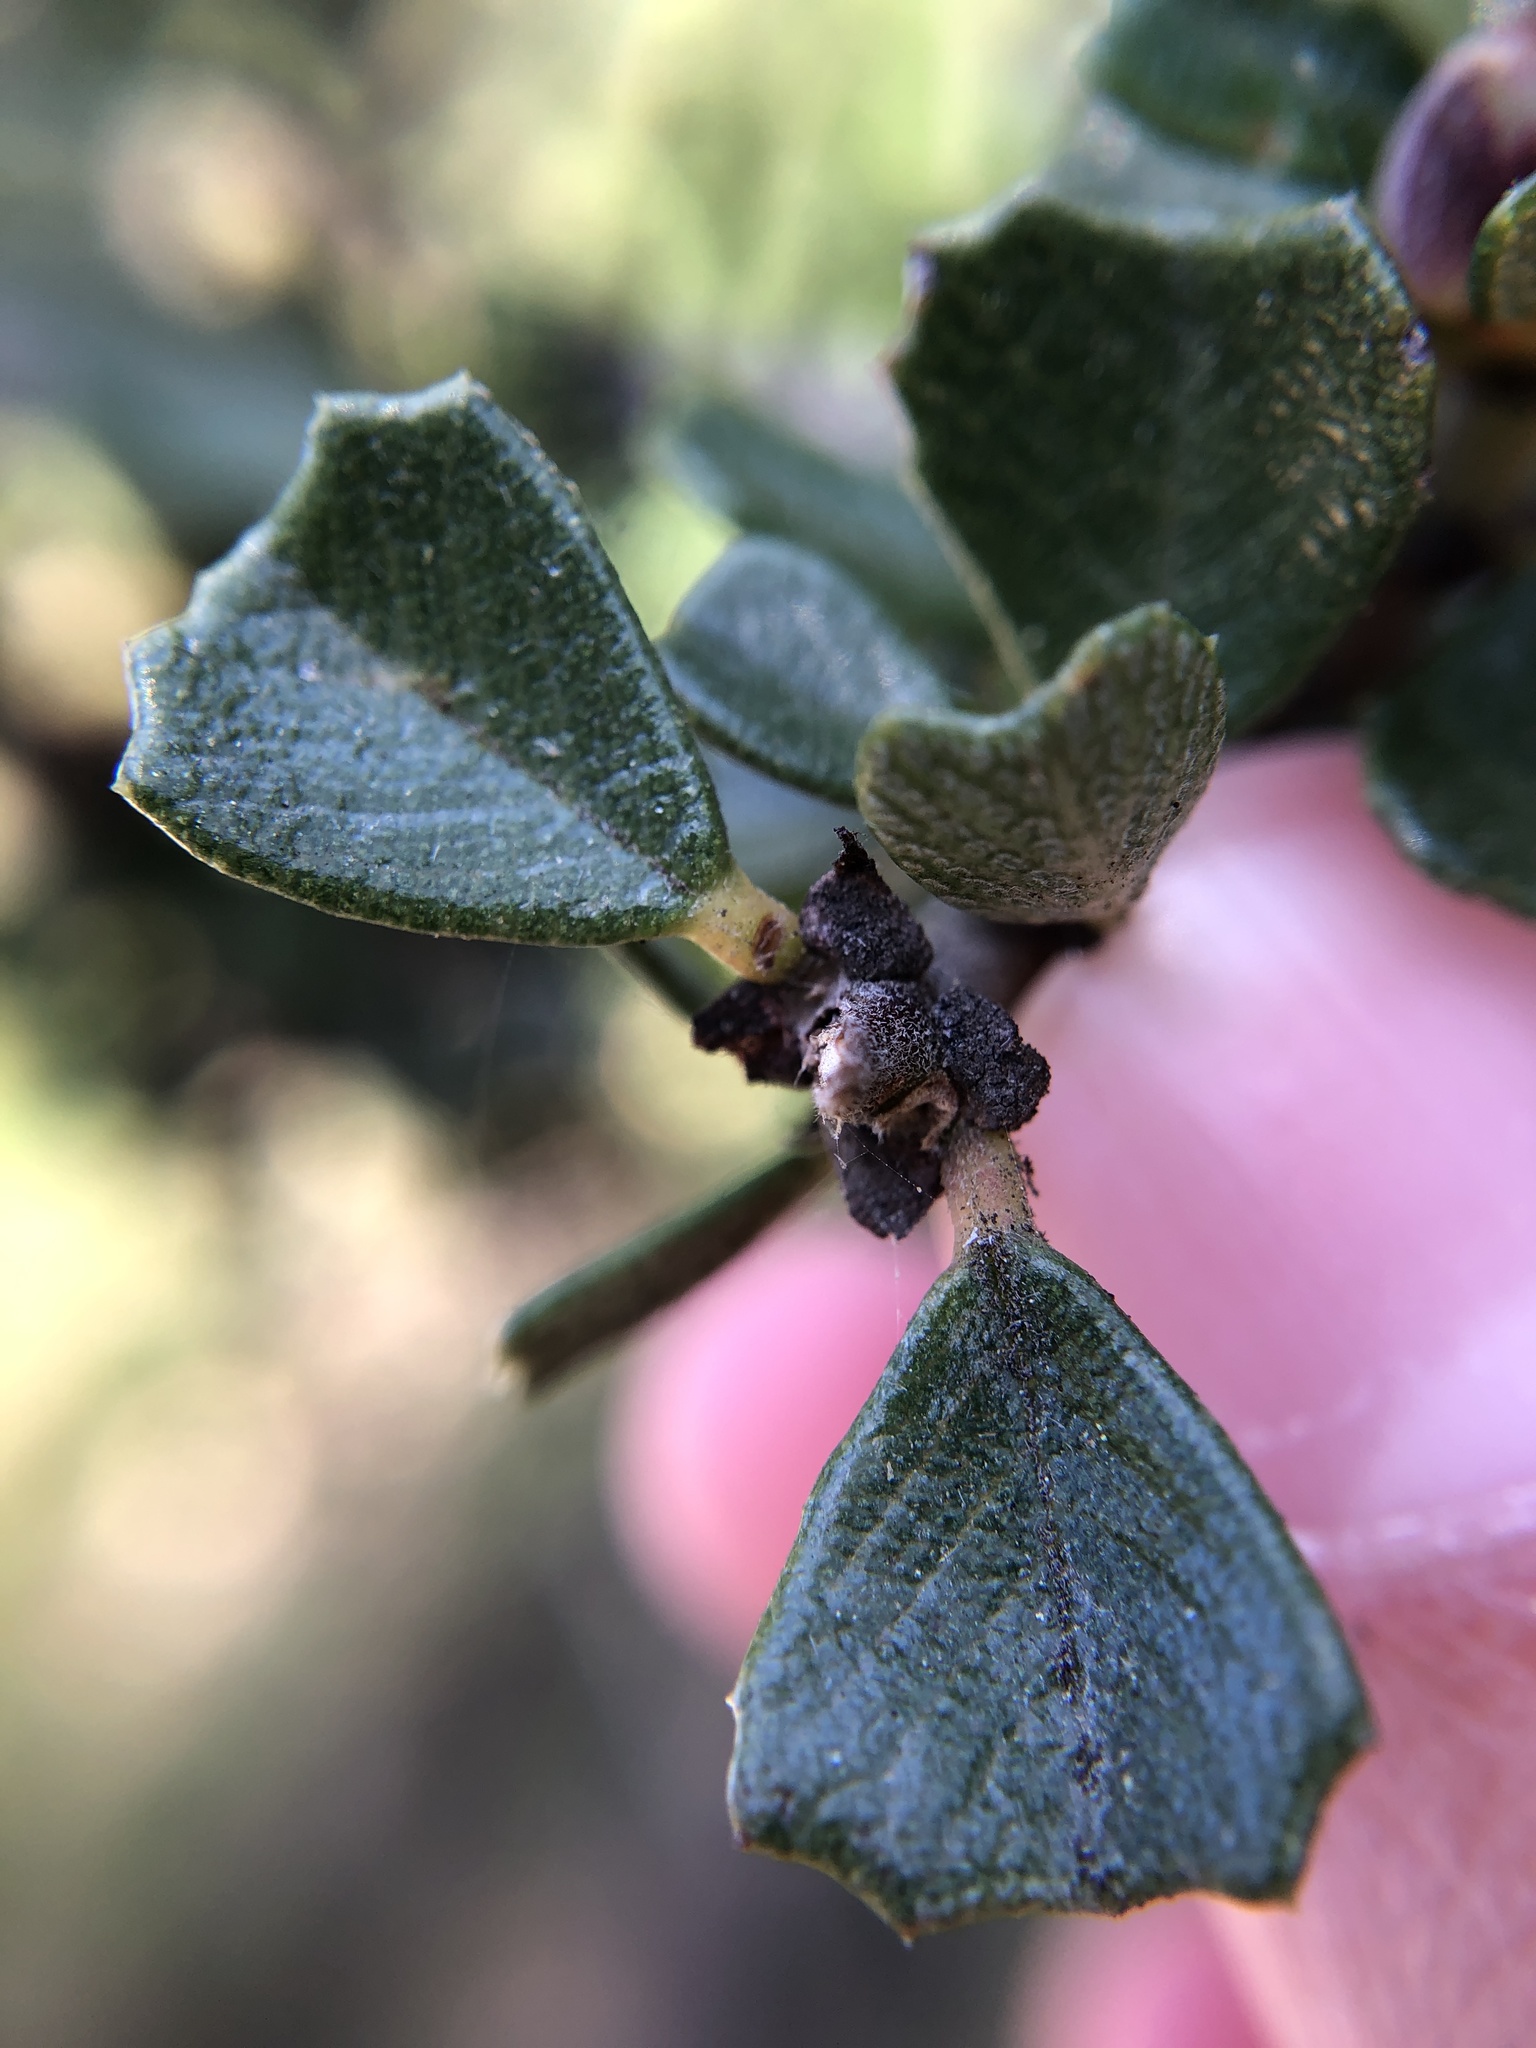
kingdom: Plantae
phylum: Tracheophyta
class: Magnoliopsida
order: Rosales
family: Rhamnaceae
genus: Ceanothus
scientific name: Ceanothus cuneatus
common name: Cuneate ceanothus
